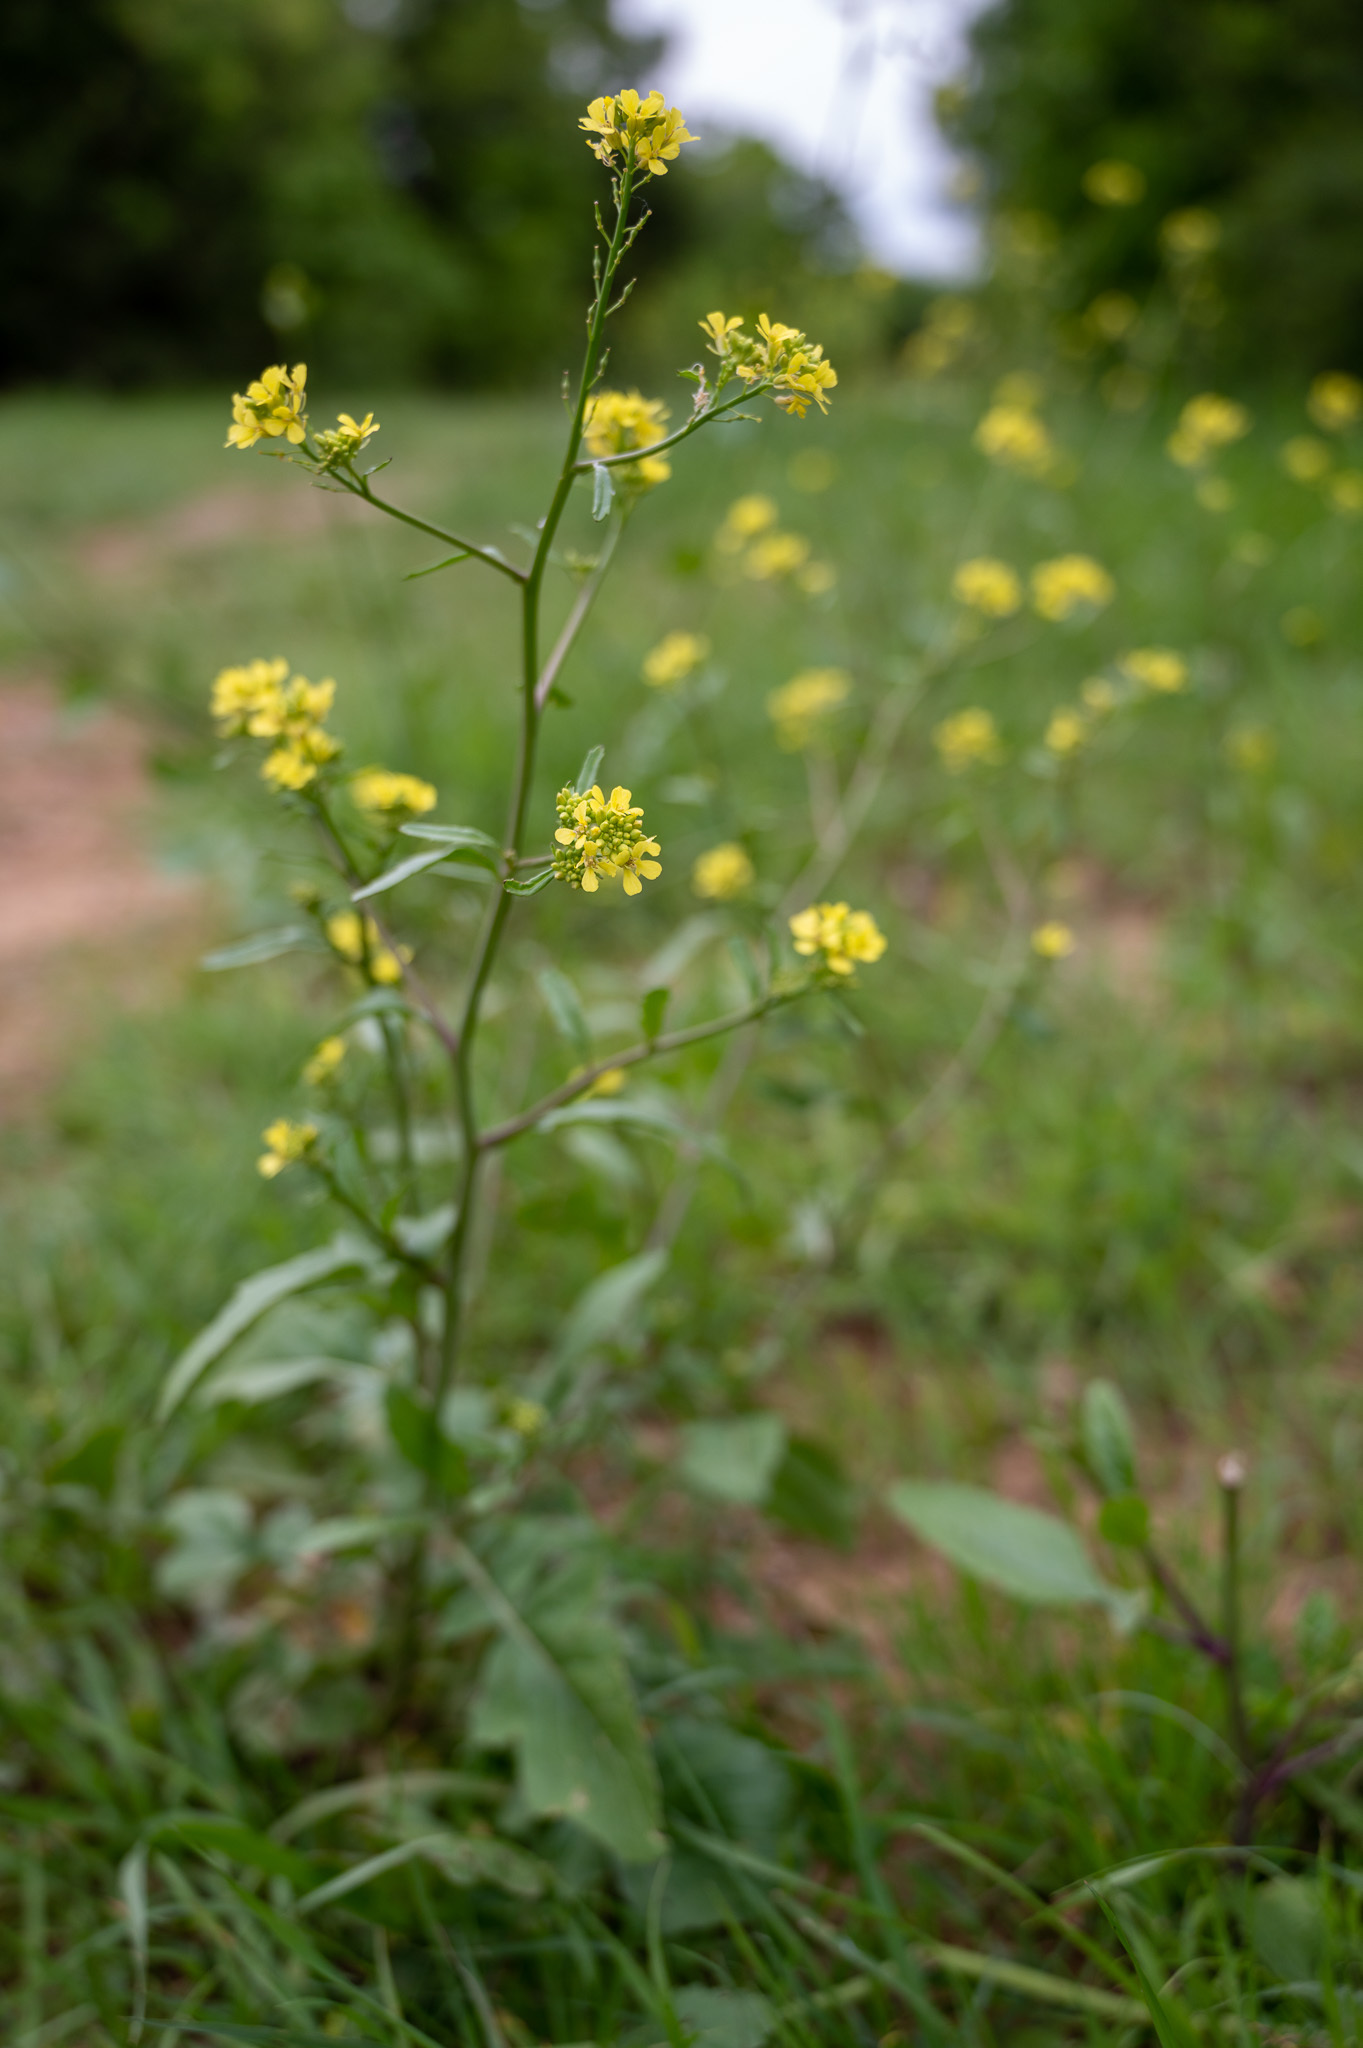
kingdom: Plantae
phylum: Tracheophyta
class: Magnoliopsida
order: Brassicales
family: Brassicaceae
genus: Rapistrum
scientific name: Rapistrum rugosum
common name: Annual bastardcabbage
